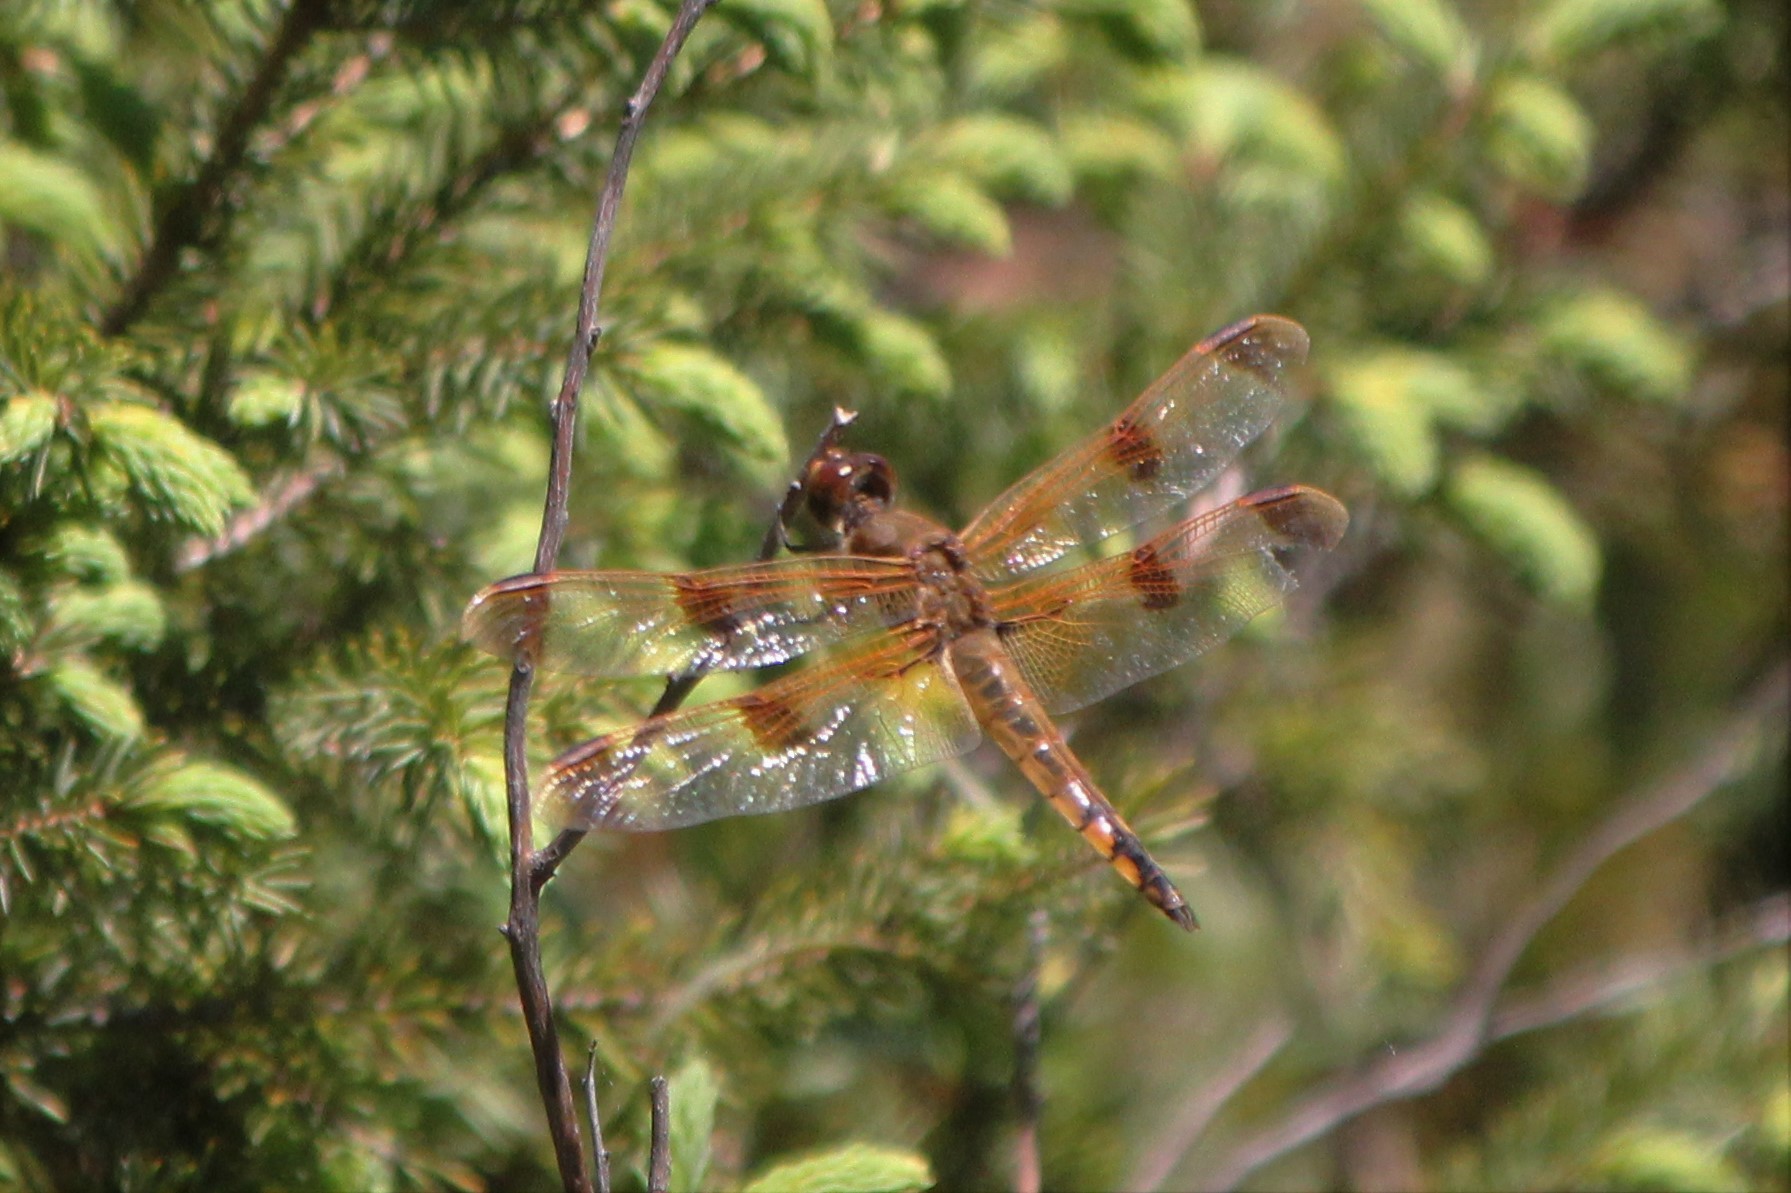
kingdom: Animalia
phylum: Arthropoda
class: Insecta
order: Odonata
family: Libellulidae
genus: Libellula
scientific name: Libellula semifasciata
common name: Painted skimmer
